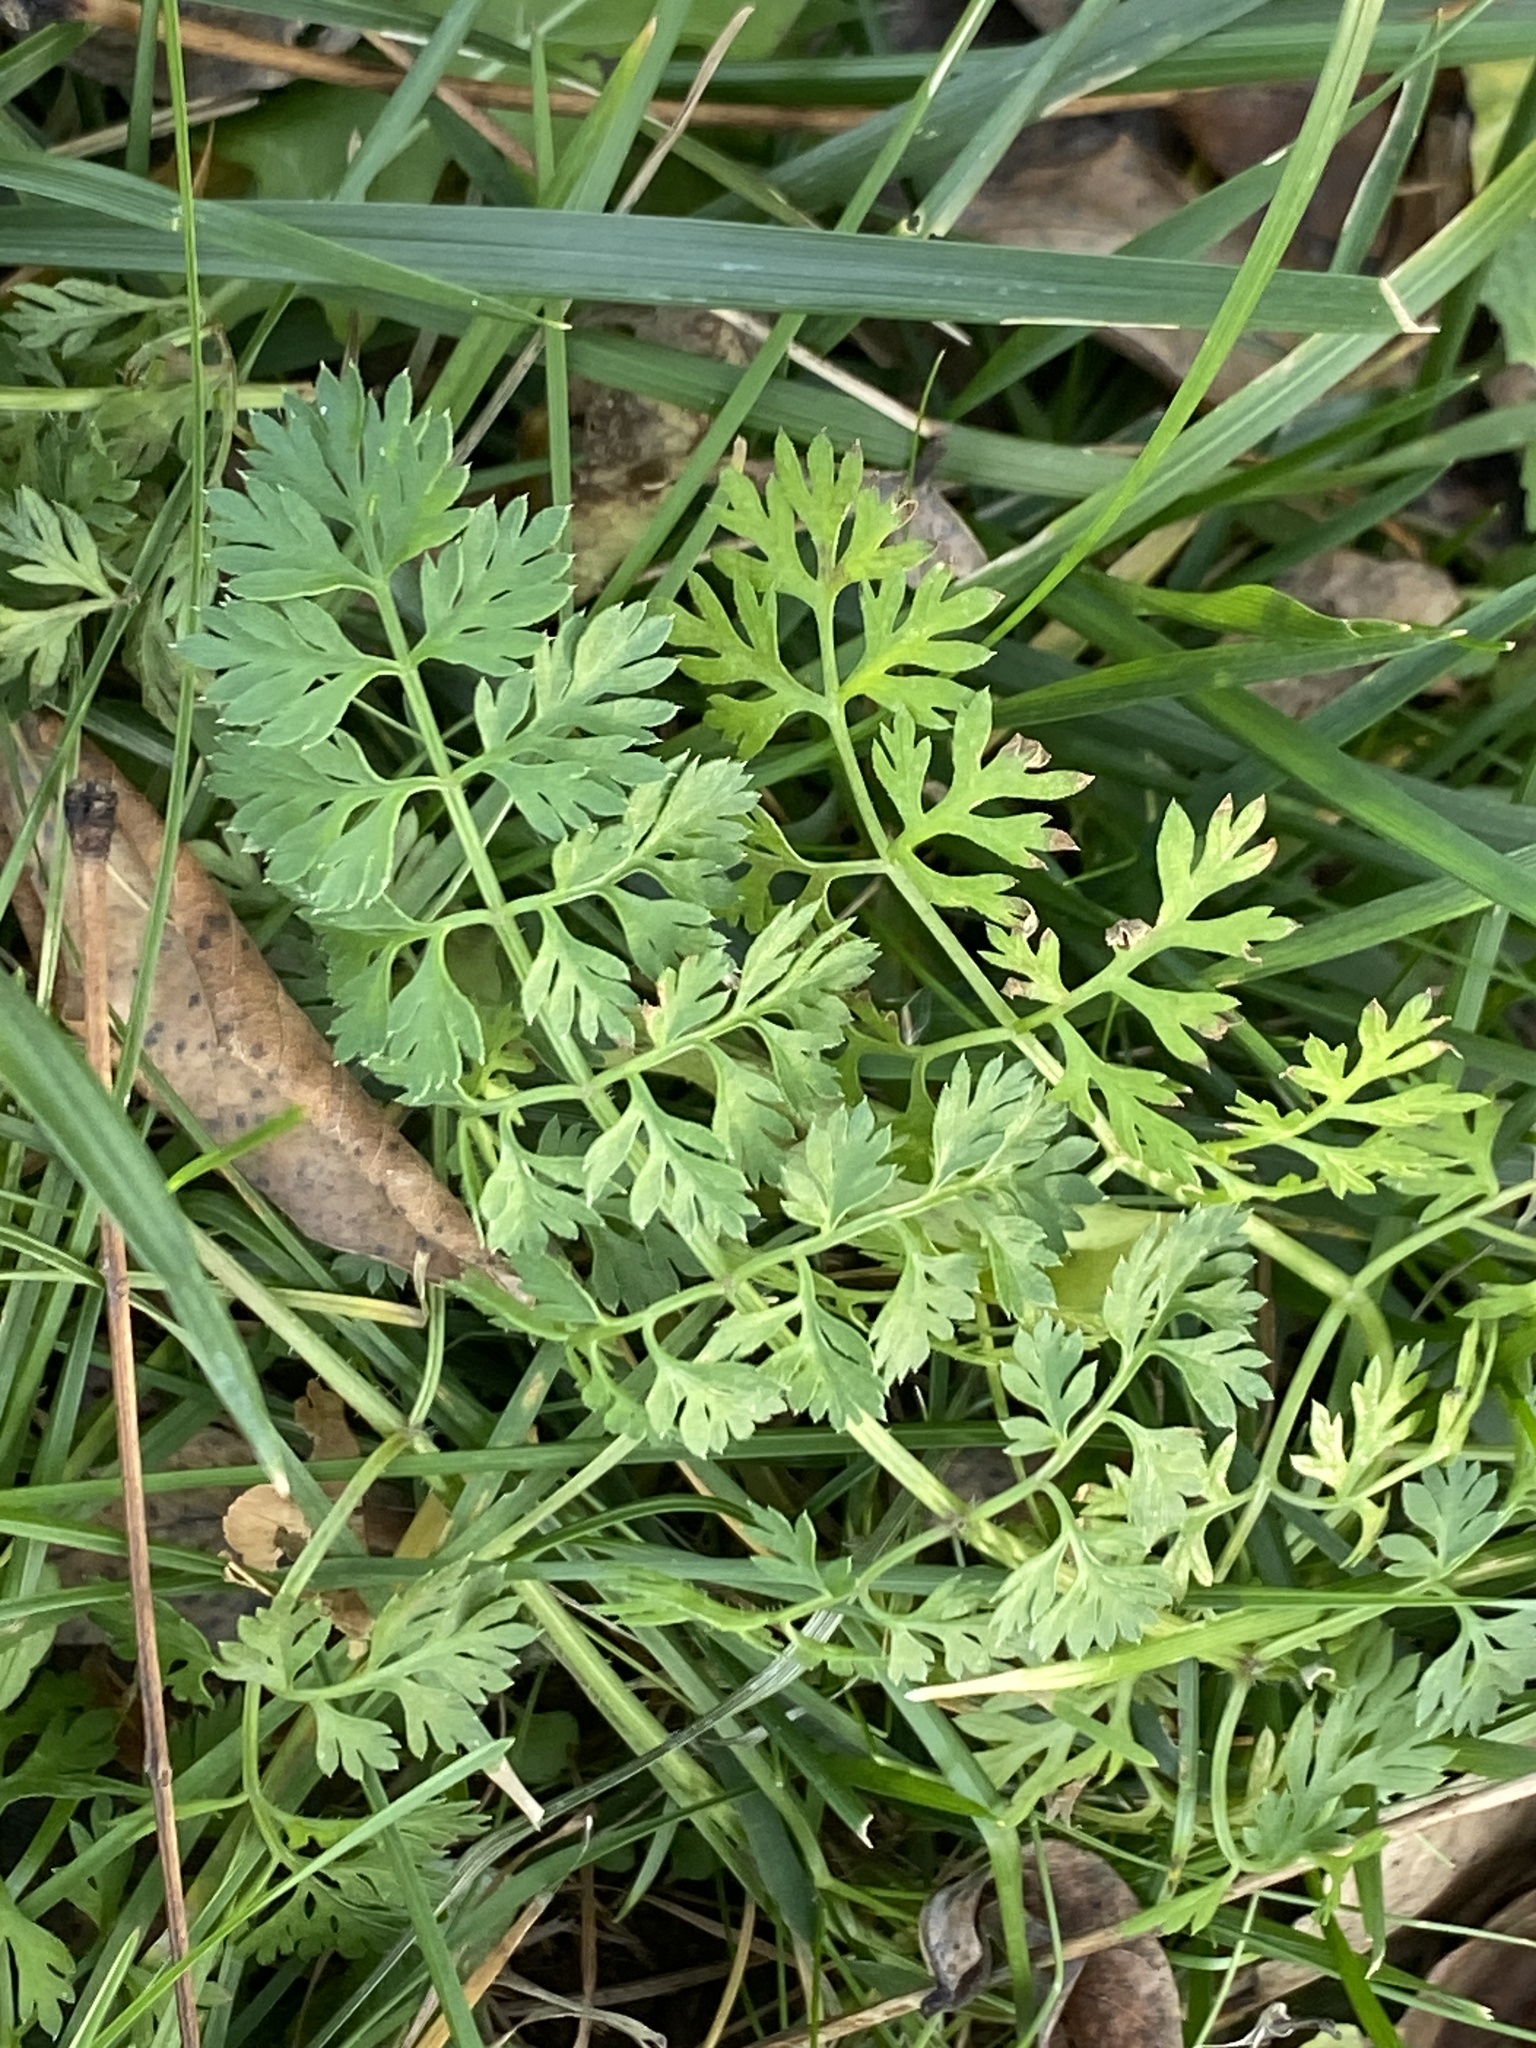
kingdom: Plantae
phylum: Tracheophyta
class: Magnoliopsida
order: Apiales
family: Apiaceae
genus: Daucus
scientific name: Daucus carota
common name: Wild carrot
